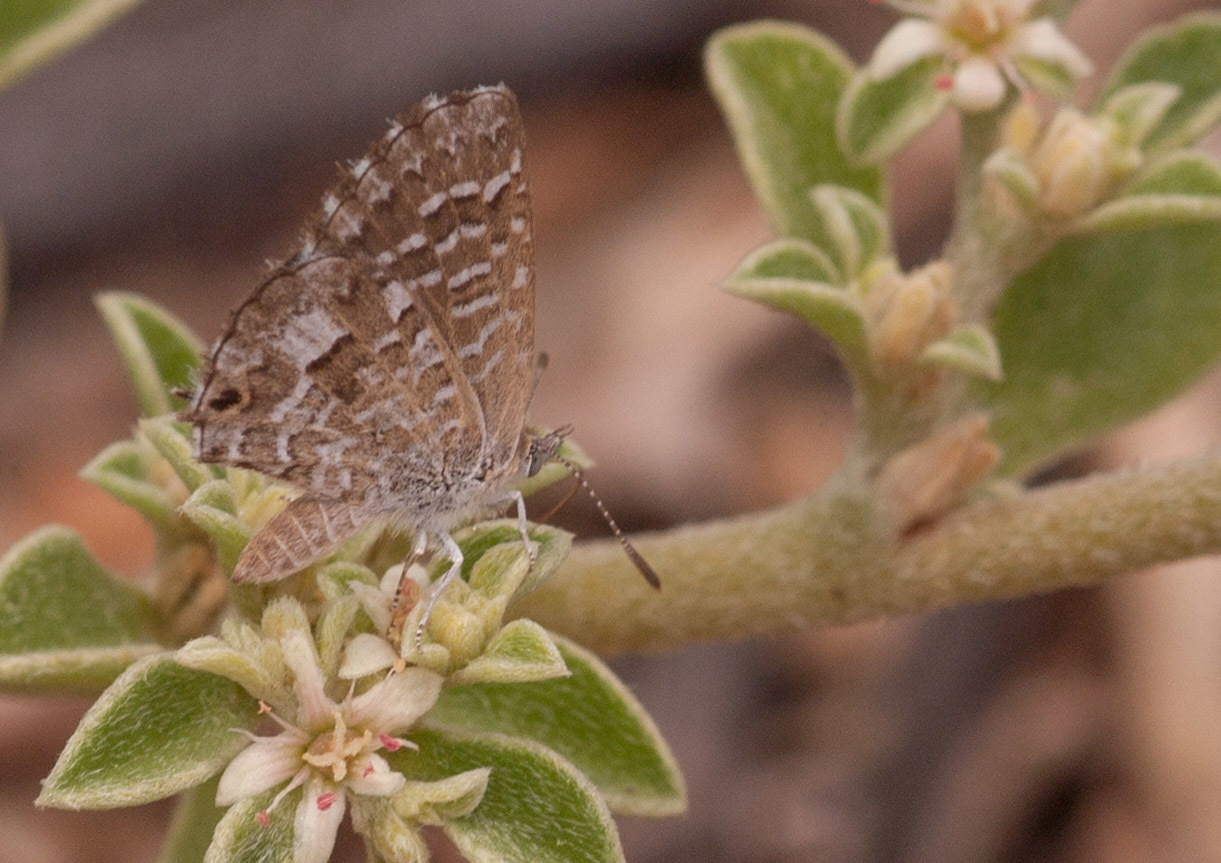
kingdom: Animalia
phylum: Arthropoda
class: Insecta
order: Lepidoptera
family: Lycaenidae
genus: Theclinesthes
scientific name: Theclinesthes serpentata
